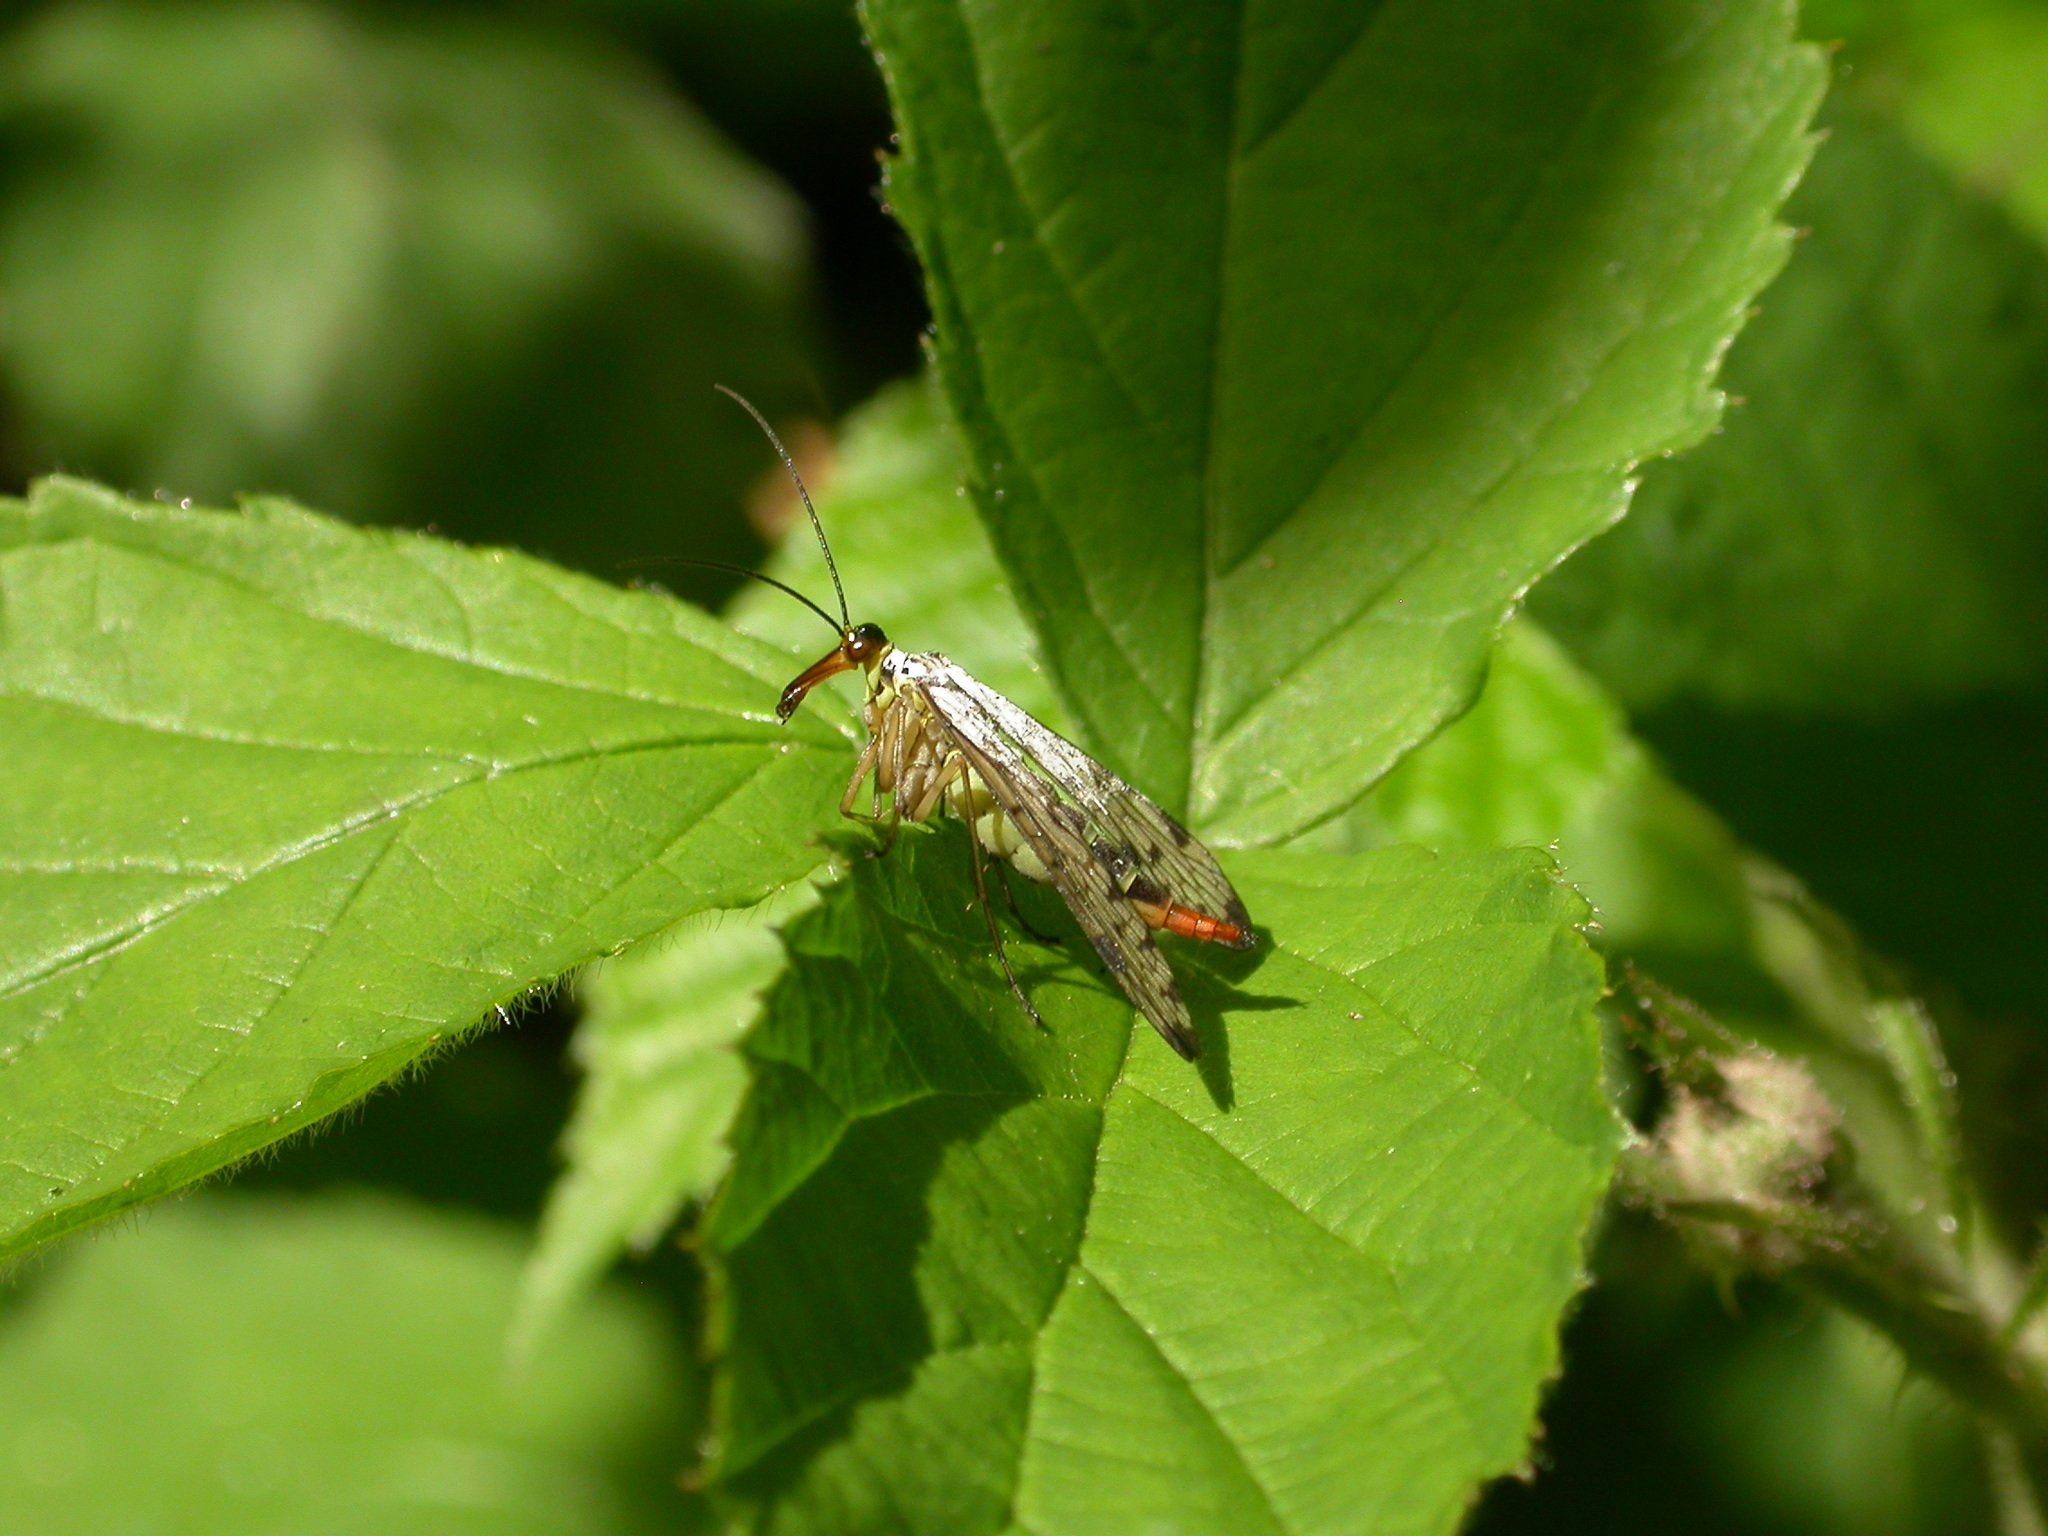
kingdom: Animalia
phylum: Arthropoda
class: Insecta
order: Mecoptera
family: Panorpidae
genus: Panorpa
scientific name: Panorpa germanica
